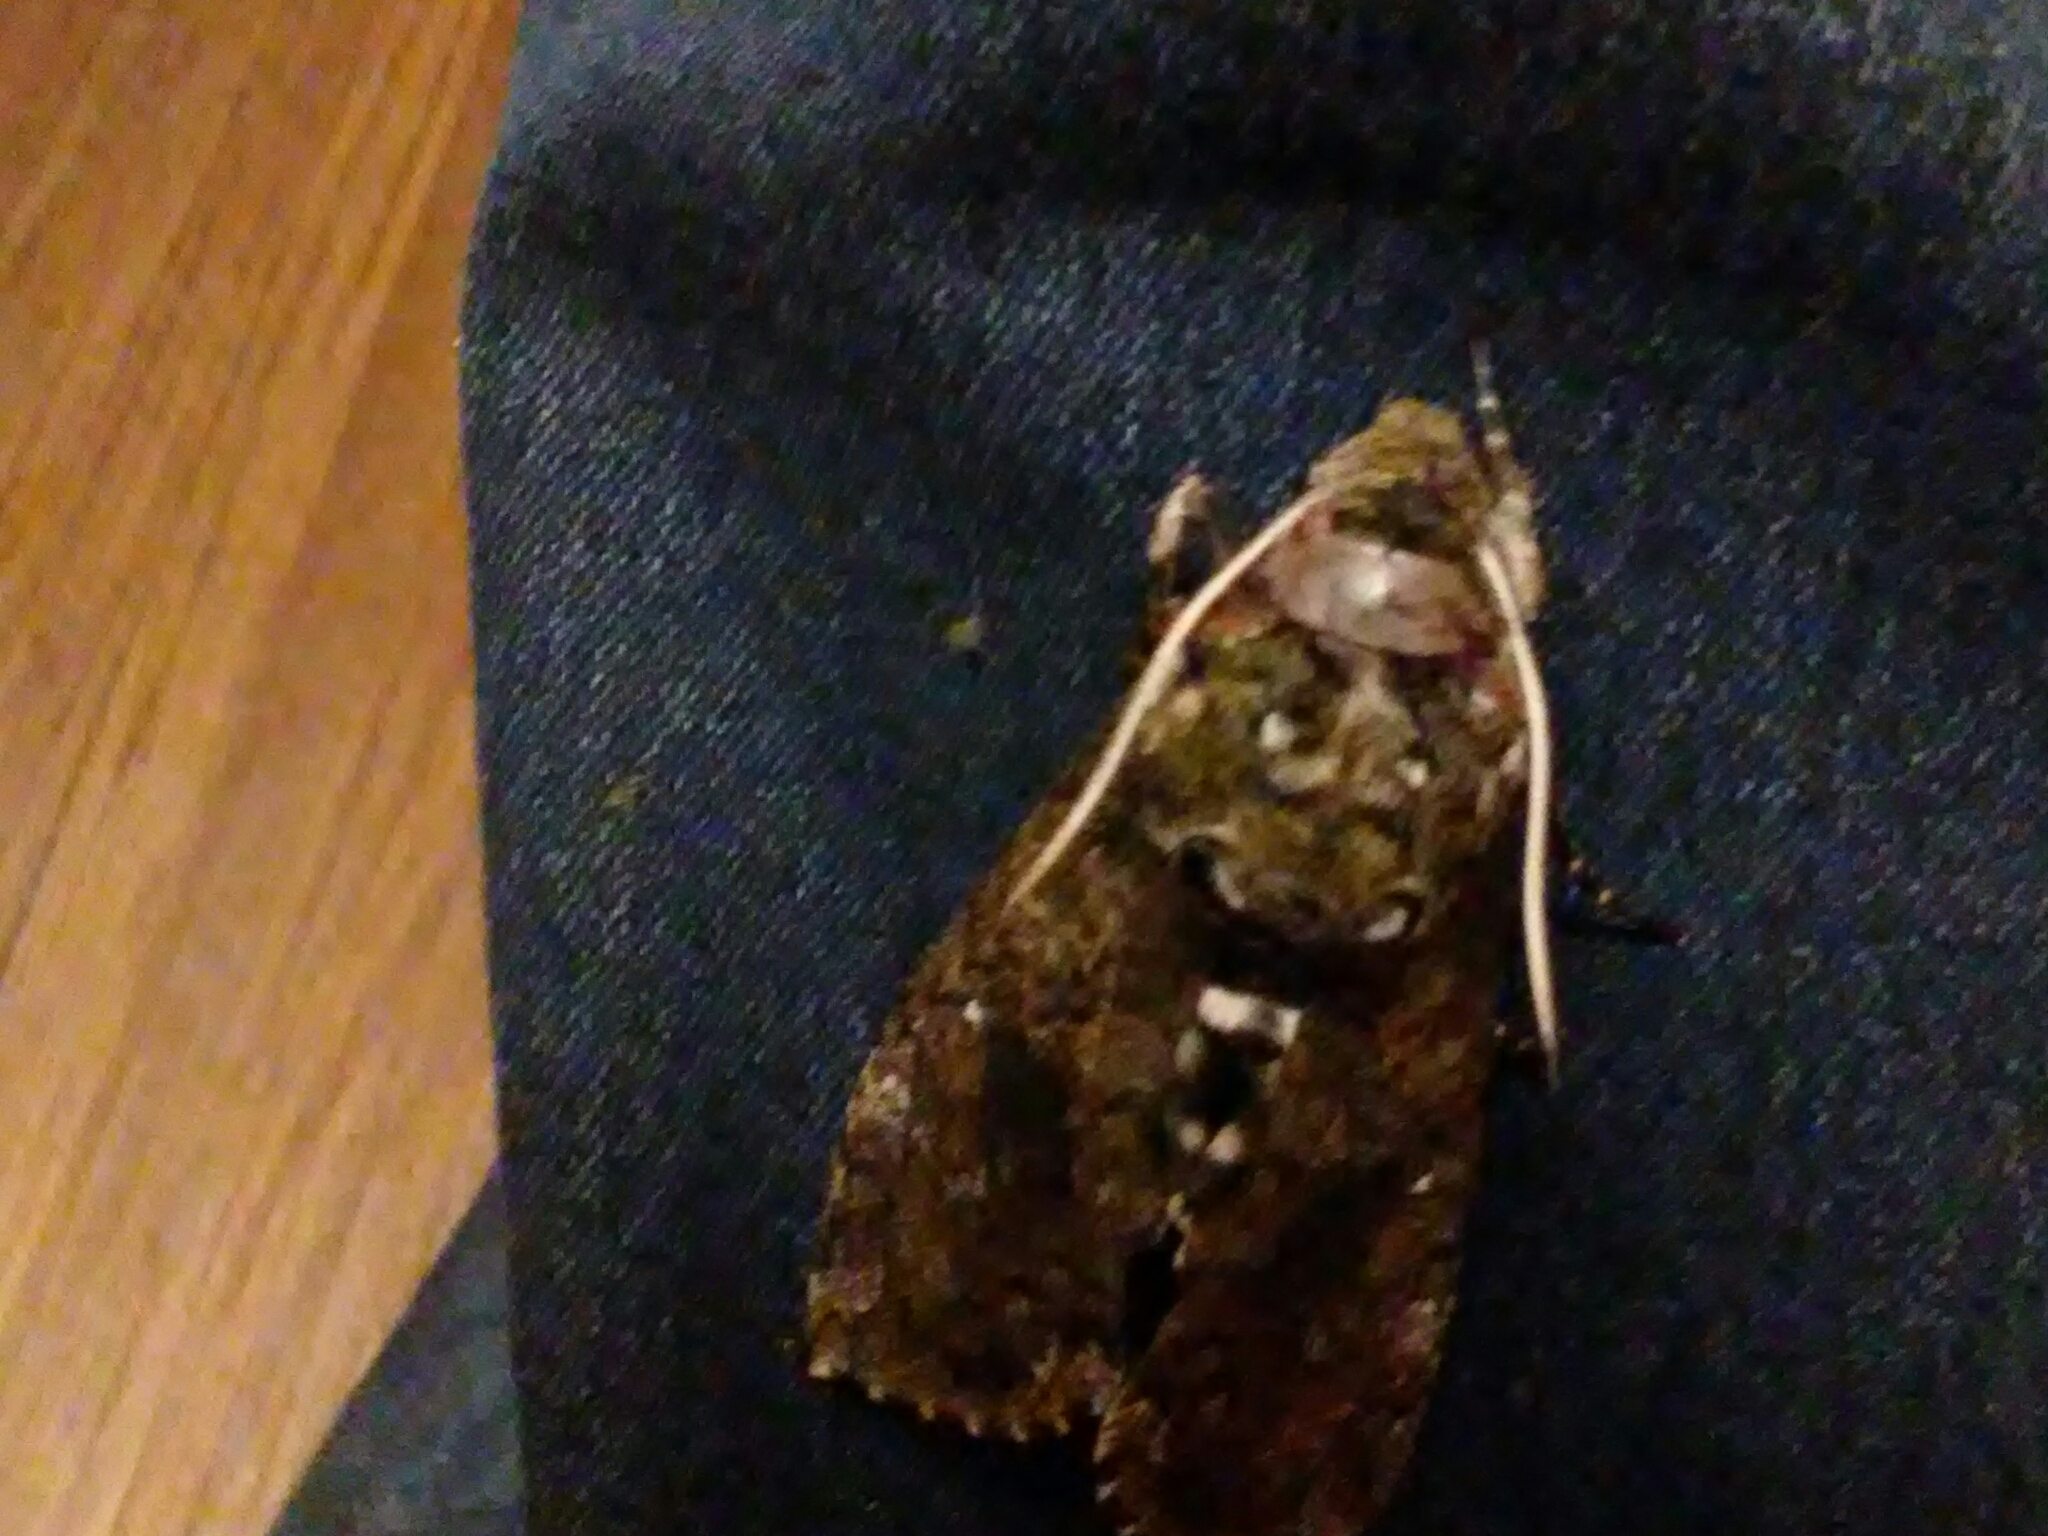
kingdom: Animalia
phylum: Arthropoda
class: Insecta
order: Lepidoptera
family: Sphingidae
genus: Manduca
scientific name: Manduca sexta
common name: Carolina sphinx
